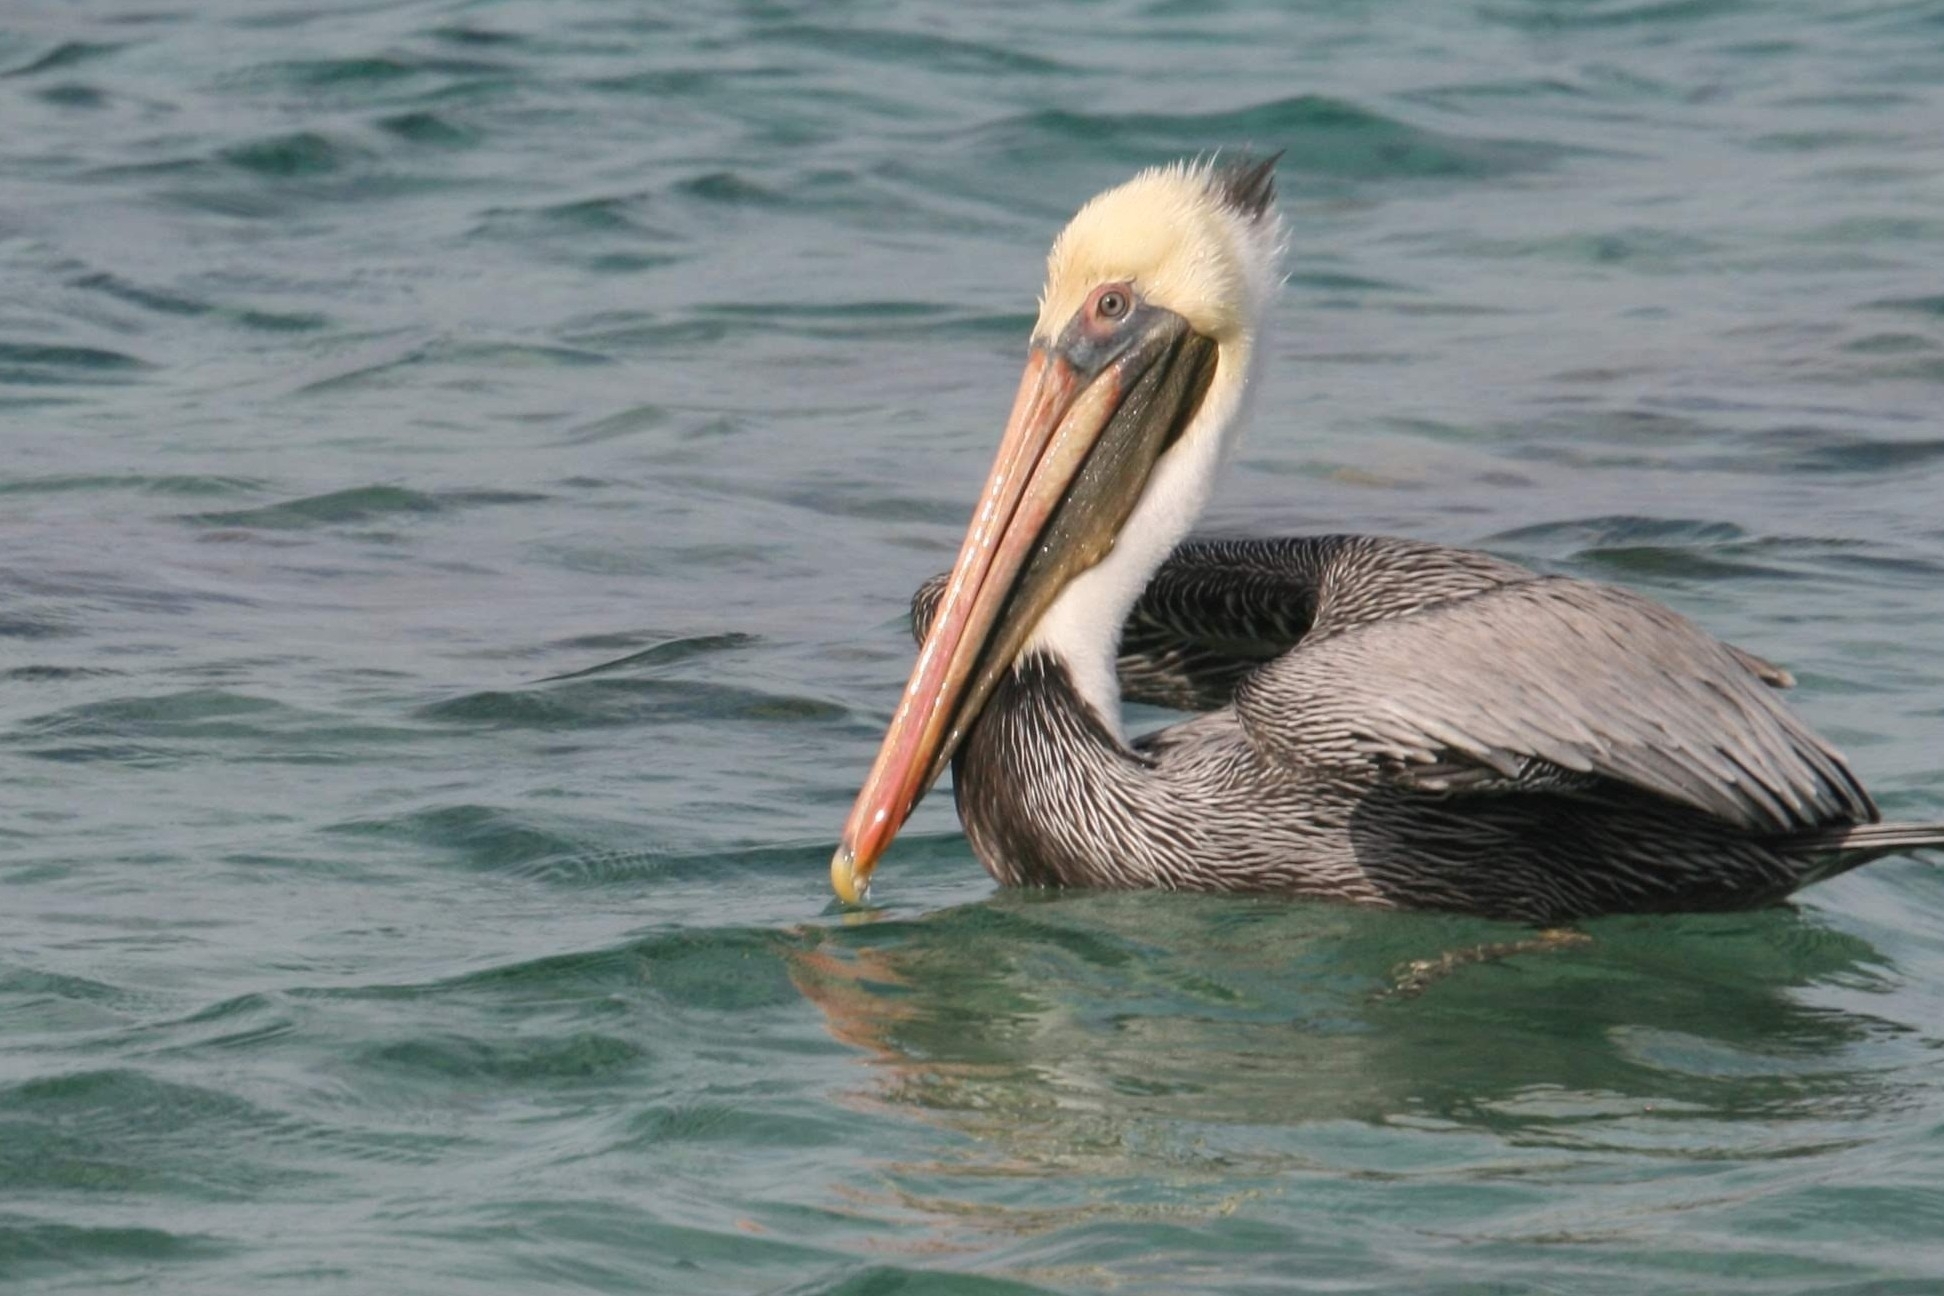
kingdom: Animalia
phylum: Chordata
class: Aves
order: Pelecaniformes
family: Pelecanidae
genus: Pelecanus
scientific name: Pelecanus occidentalis
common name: Brown pelican
